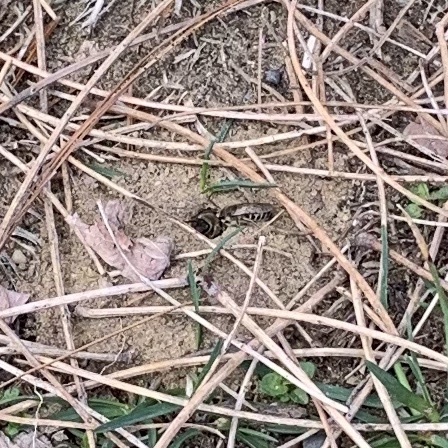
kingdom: Animalia
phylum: Arthropoda
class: Insecta
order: Hymenoptera
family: Colletidae
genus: Colletes
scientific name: Colletes inaequalis
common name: Unequal cellophane bee
